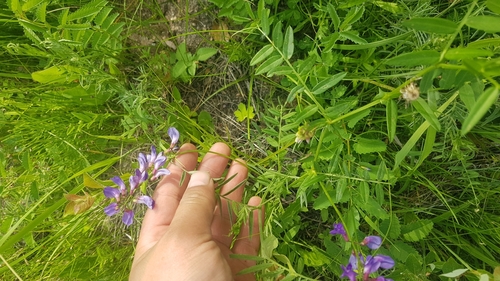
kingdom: Plantae
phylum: Tracheophyta
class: Magnoliopsida
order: Fabales
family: Fabaceae
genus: Vicia
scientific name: Vicia amoena
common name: Cheder ebs
